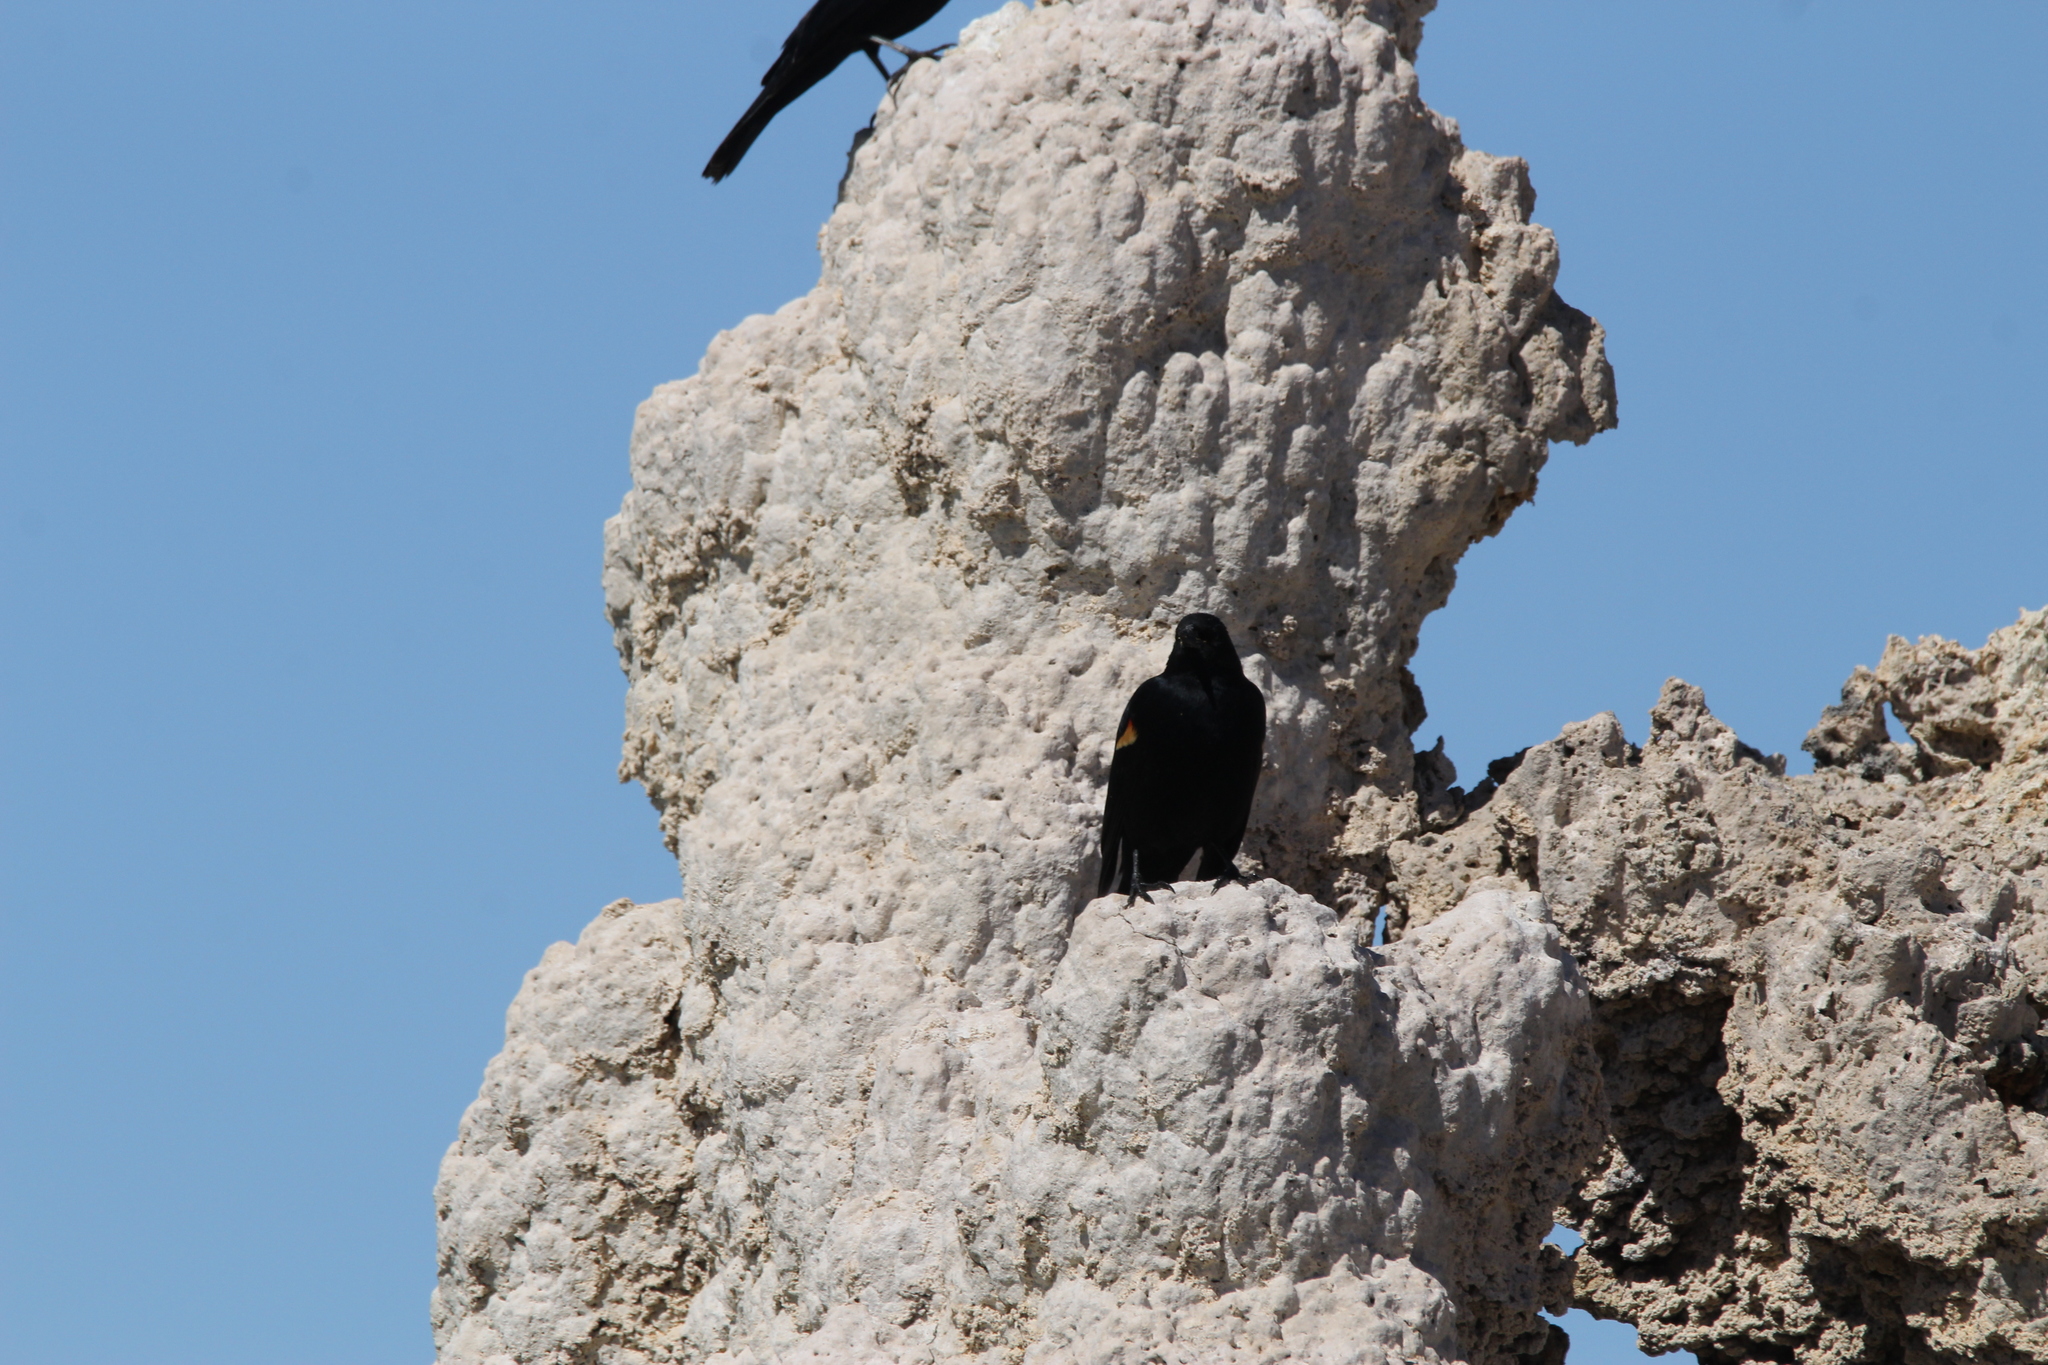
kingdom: Animalia
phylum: Chordata
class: Aves
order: Passeriformes
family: Icteridae
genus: Agelaius
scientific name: Agelaius phoeniceus
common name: Red-winged blackbird
